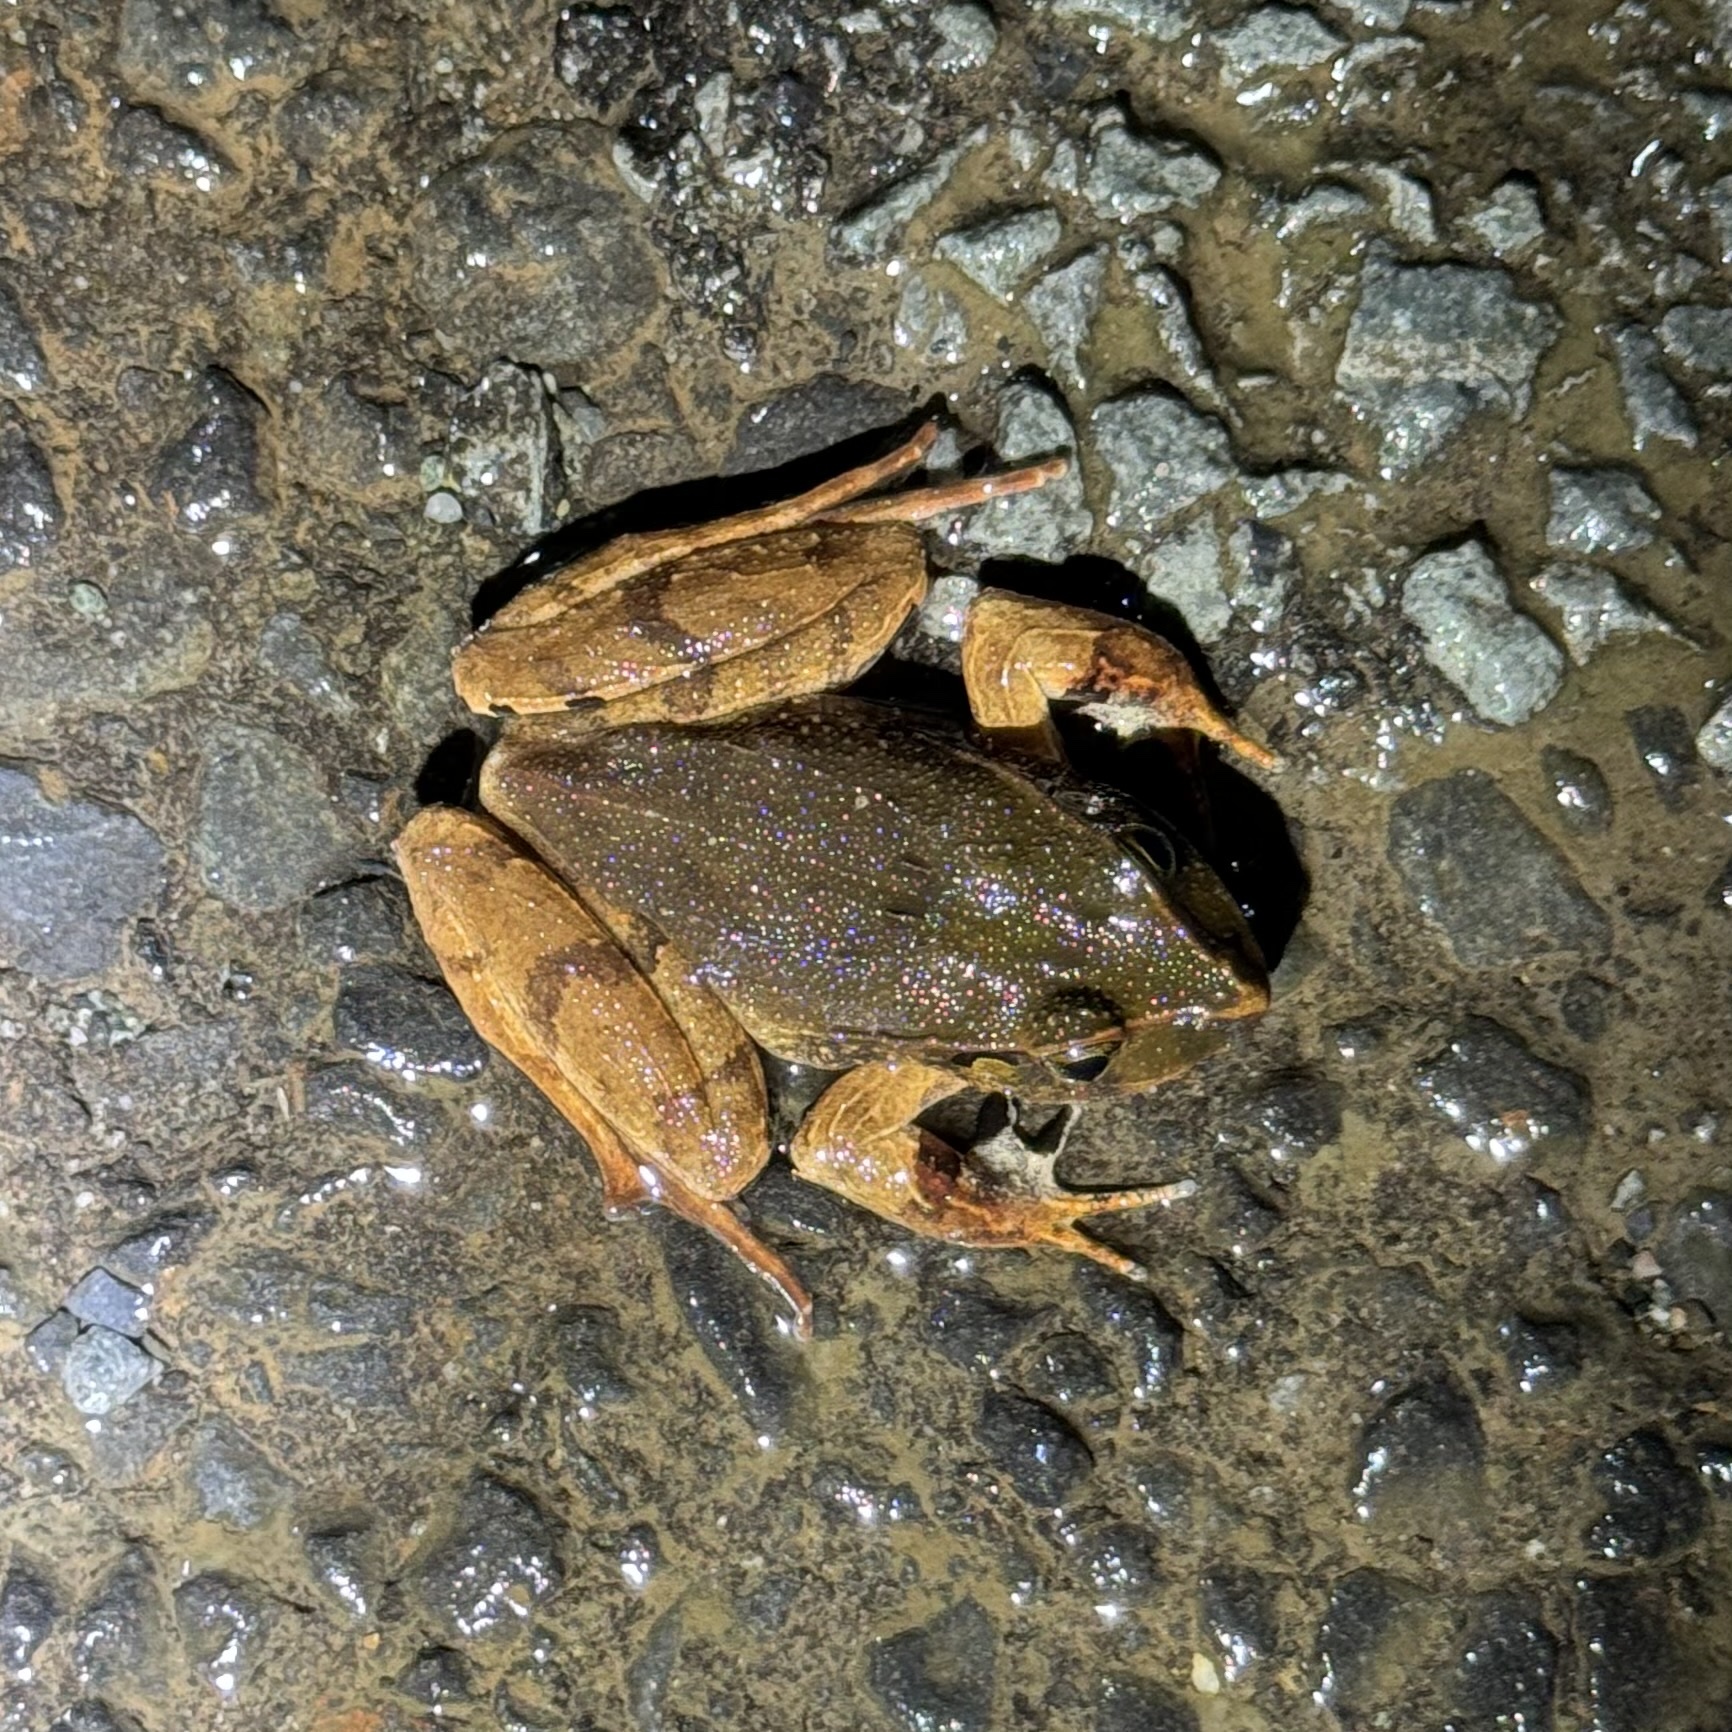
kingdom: Animalia
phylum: Chordata
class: Amphibia
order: Anura
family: Limnodynastidae
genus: Platyplectrum
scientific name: Platyplectrum
